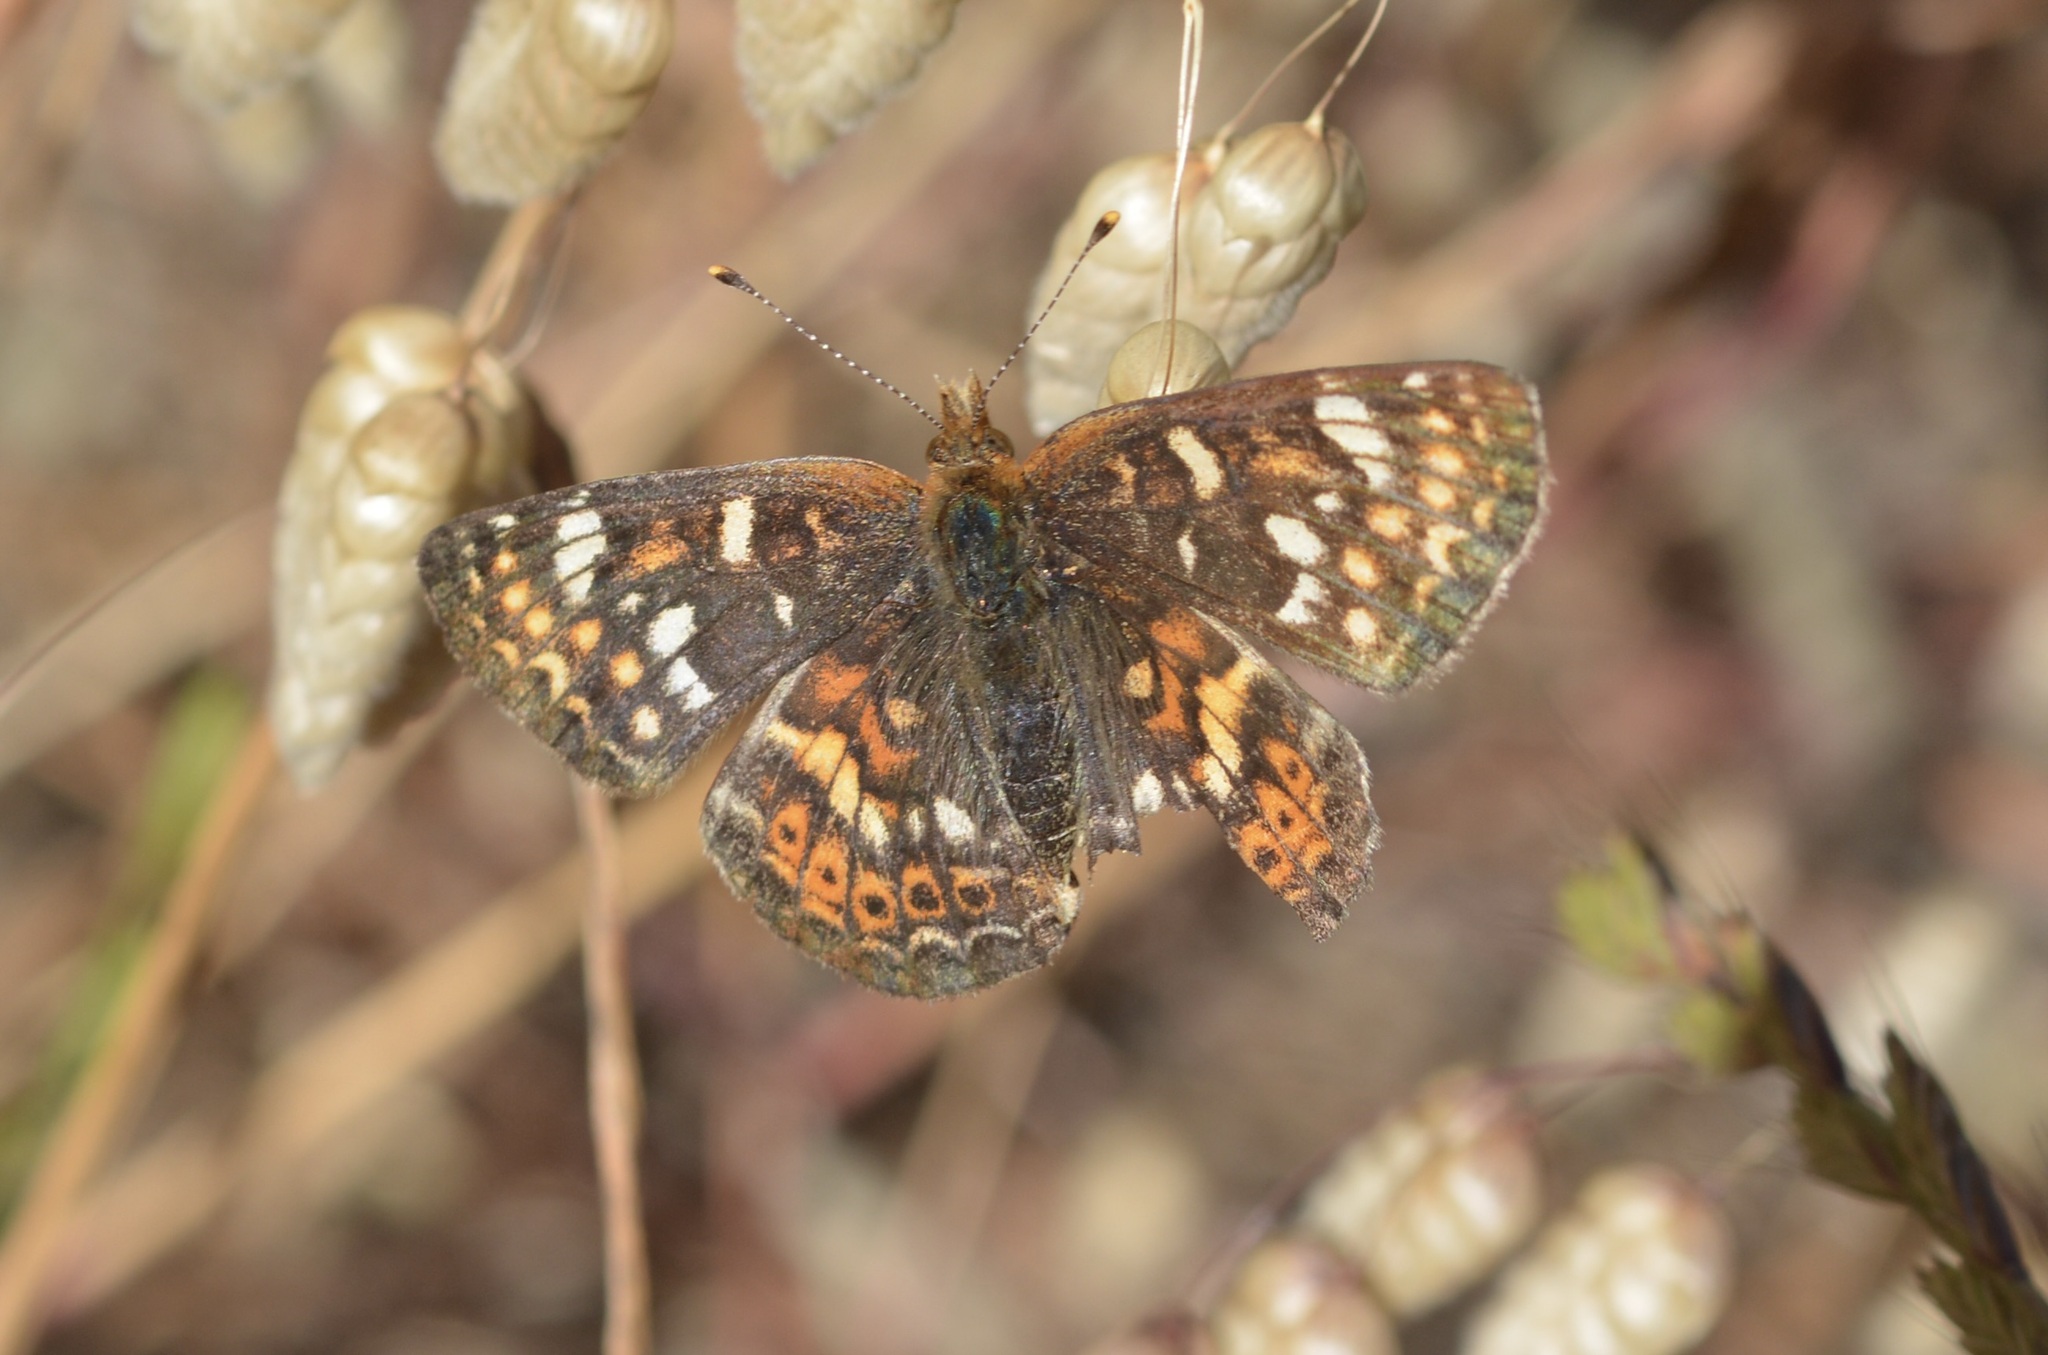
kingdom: Animalia
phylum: Arthropoda
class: Insecta
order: Lepidoptera
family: Nymphalidae
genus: Phyciodes
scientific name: Phyciodes tharos
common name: Pearl crescent
